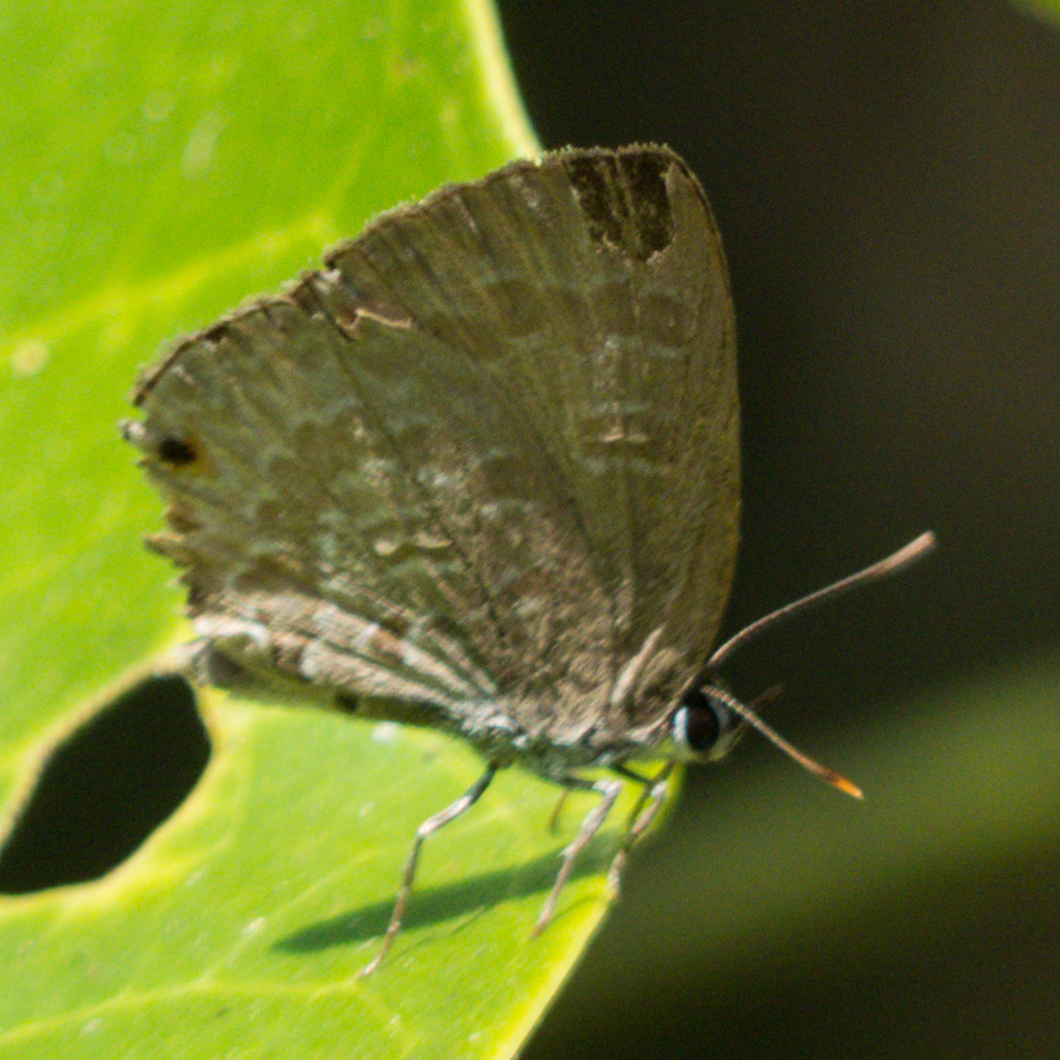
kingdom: Animalia
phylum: Arthropoda
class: Insecta
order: Lepidoptera
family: Lycaenidae
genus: Anthene
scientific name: Anthene emolus
